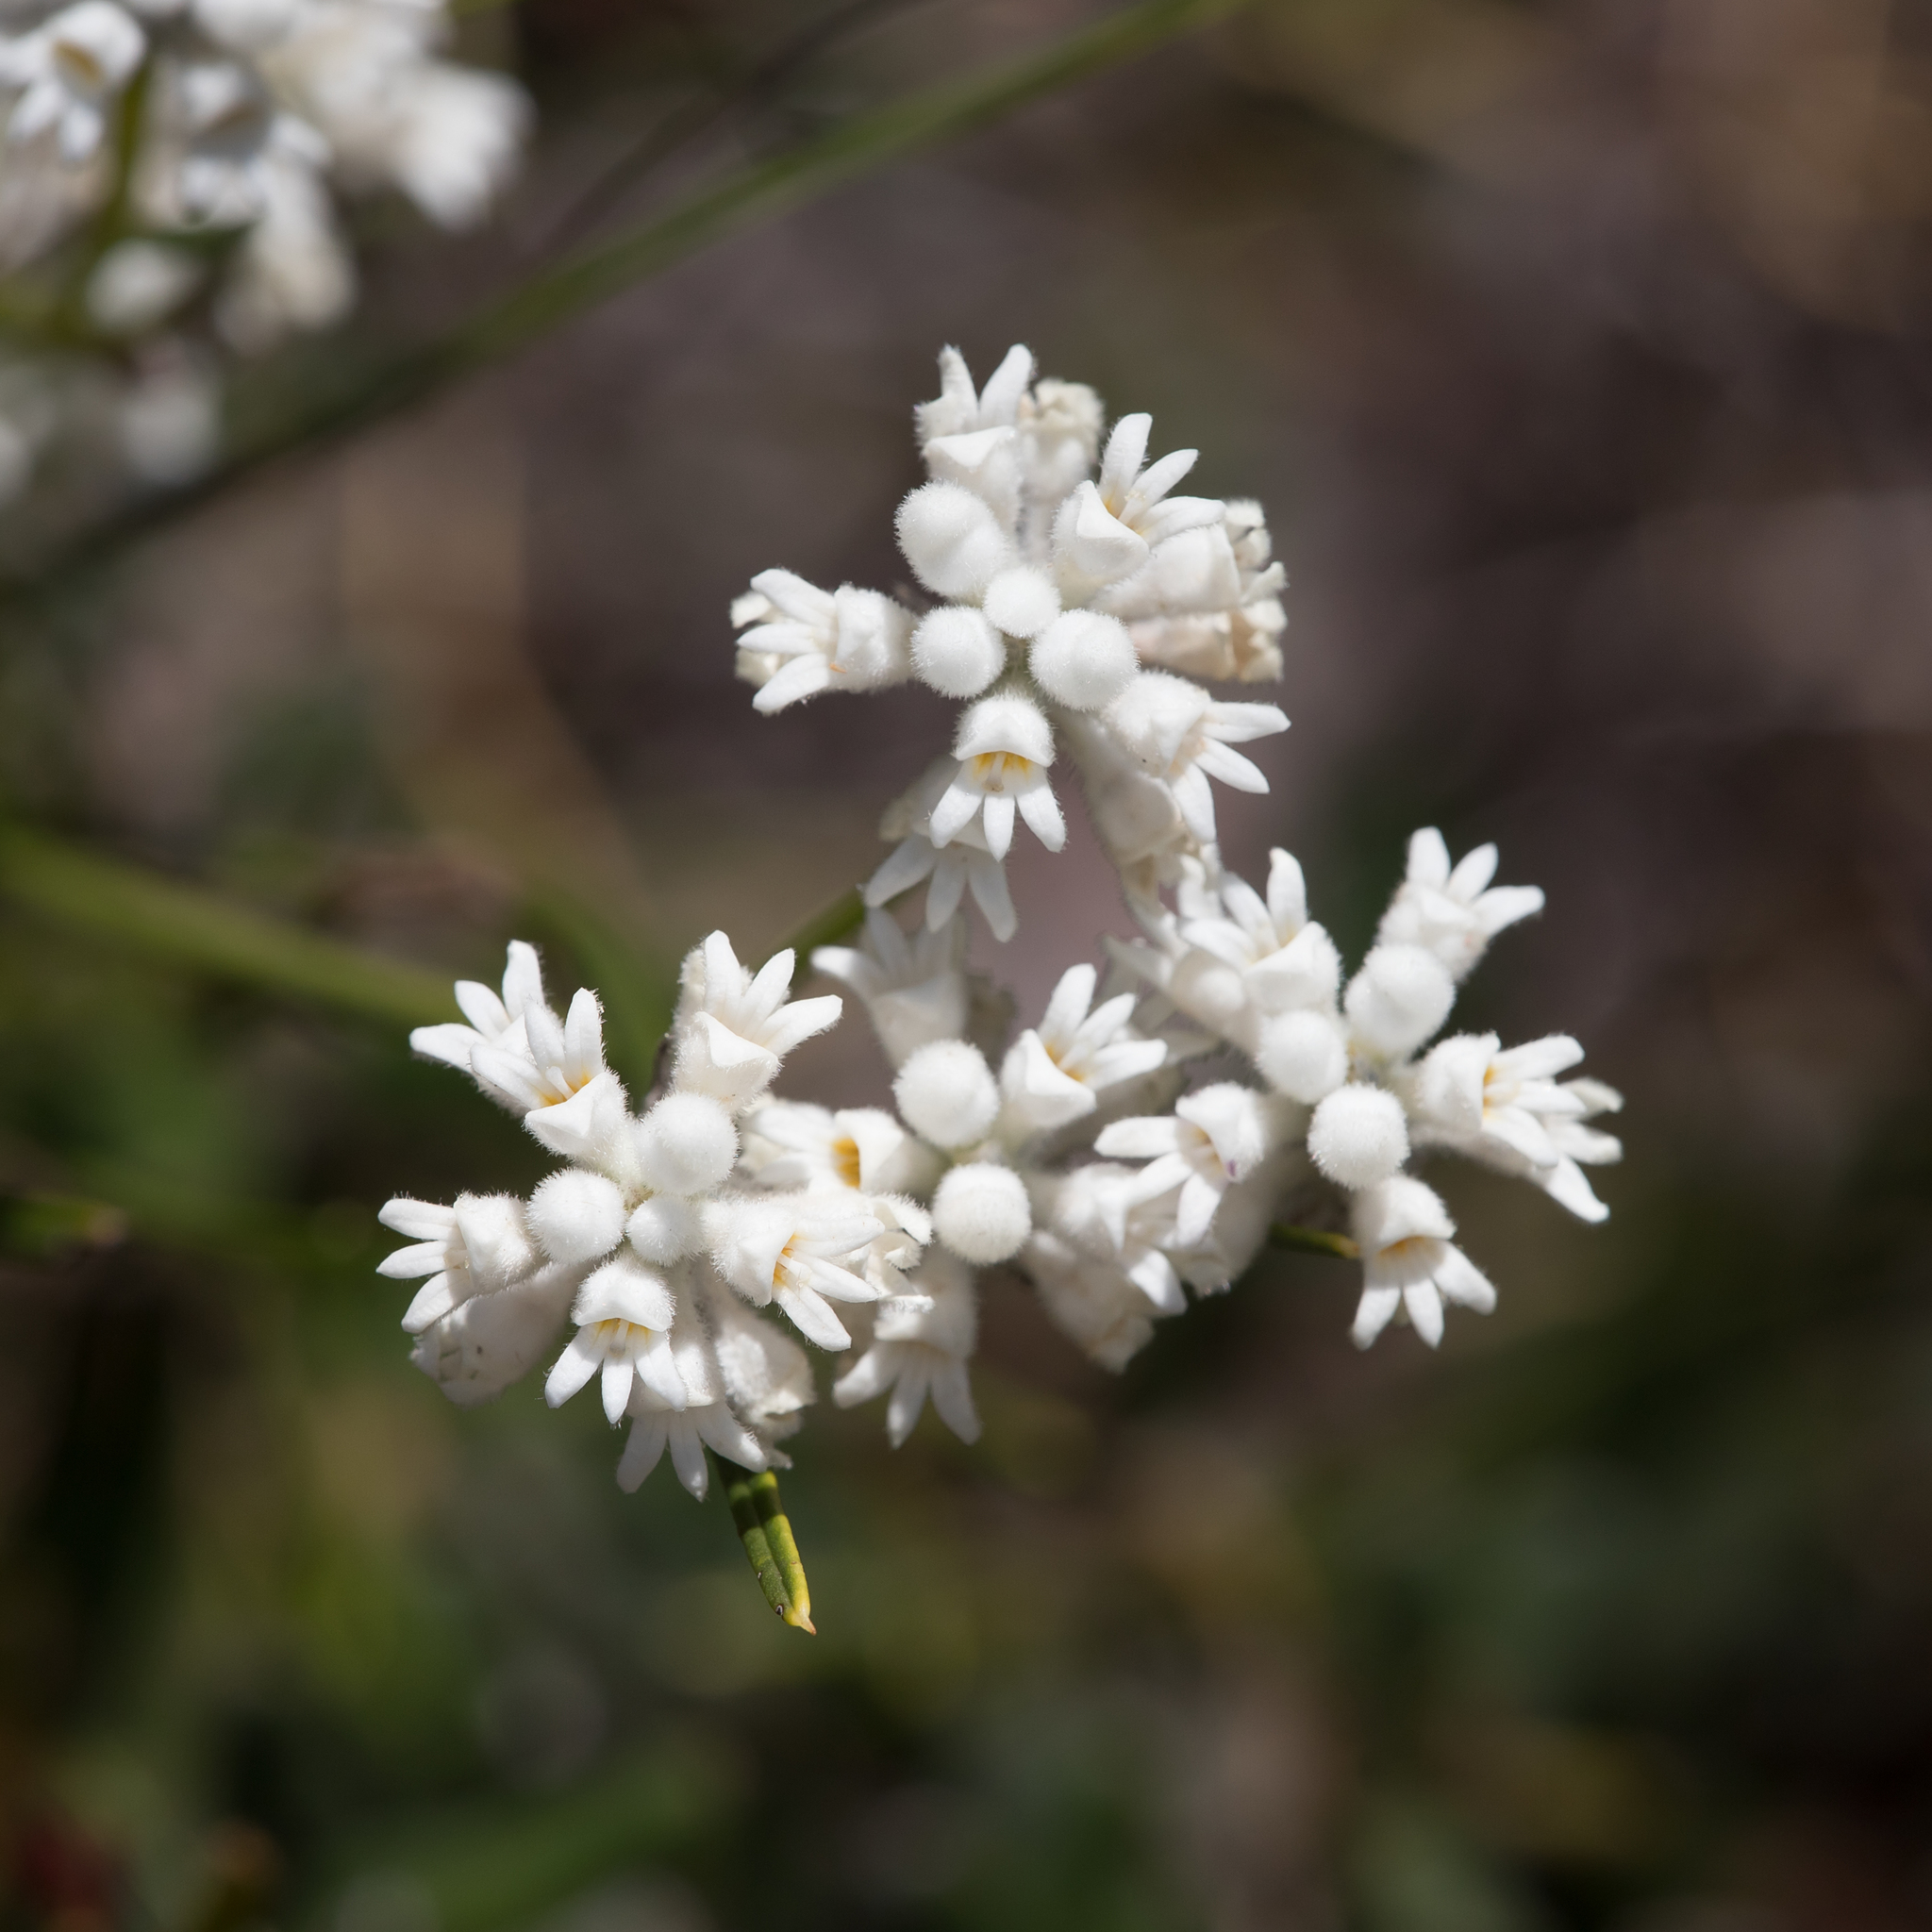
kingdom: Plantae
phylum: Tracheophyta
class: Magnoliopsida
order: Proteales
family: Proteaceae
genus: Conospermum
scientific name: Conospermum mitchellii
